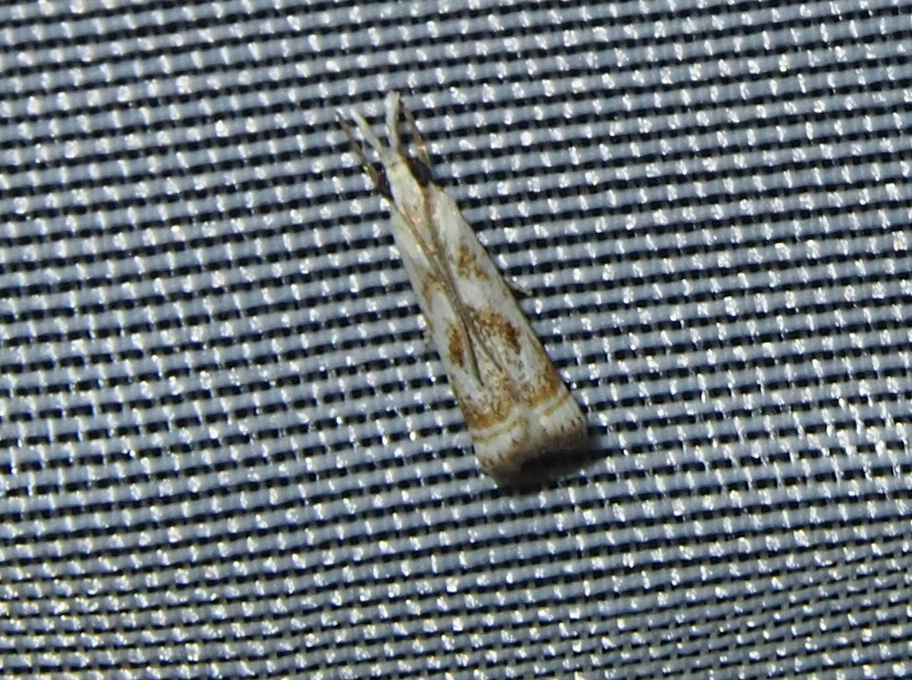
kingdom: Animalia
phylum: Arthropoda
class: Insecta
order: Lepidoptera
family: Crambidae
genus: Microcrambus
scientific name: Microcrambus elegans
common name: Elegant grass-veneer
